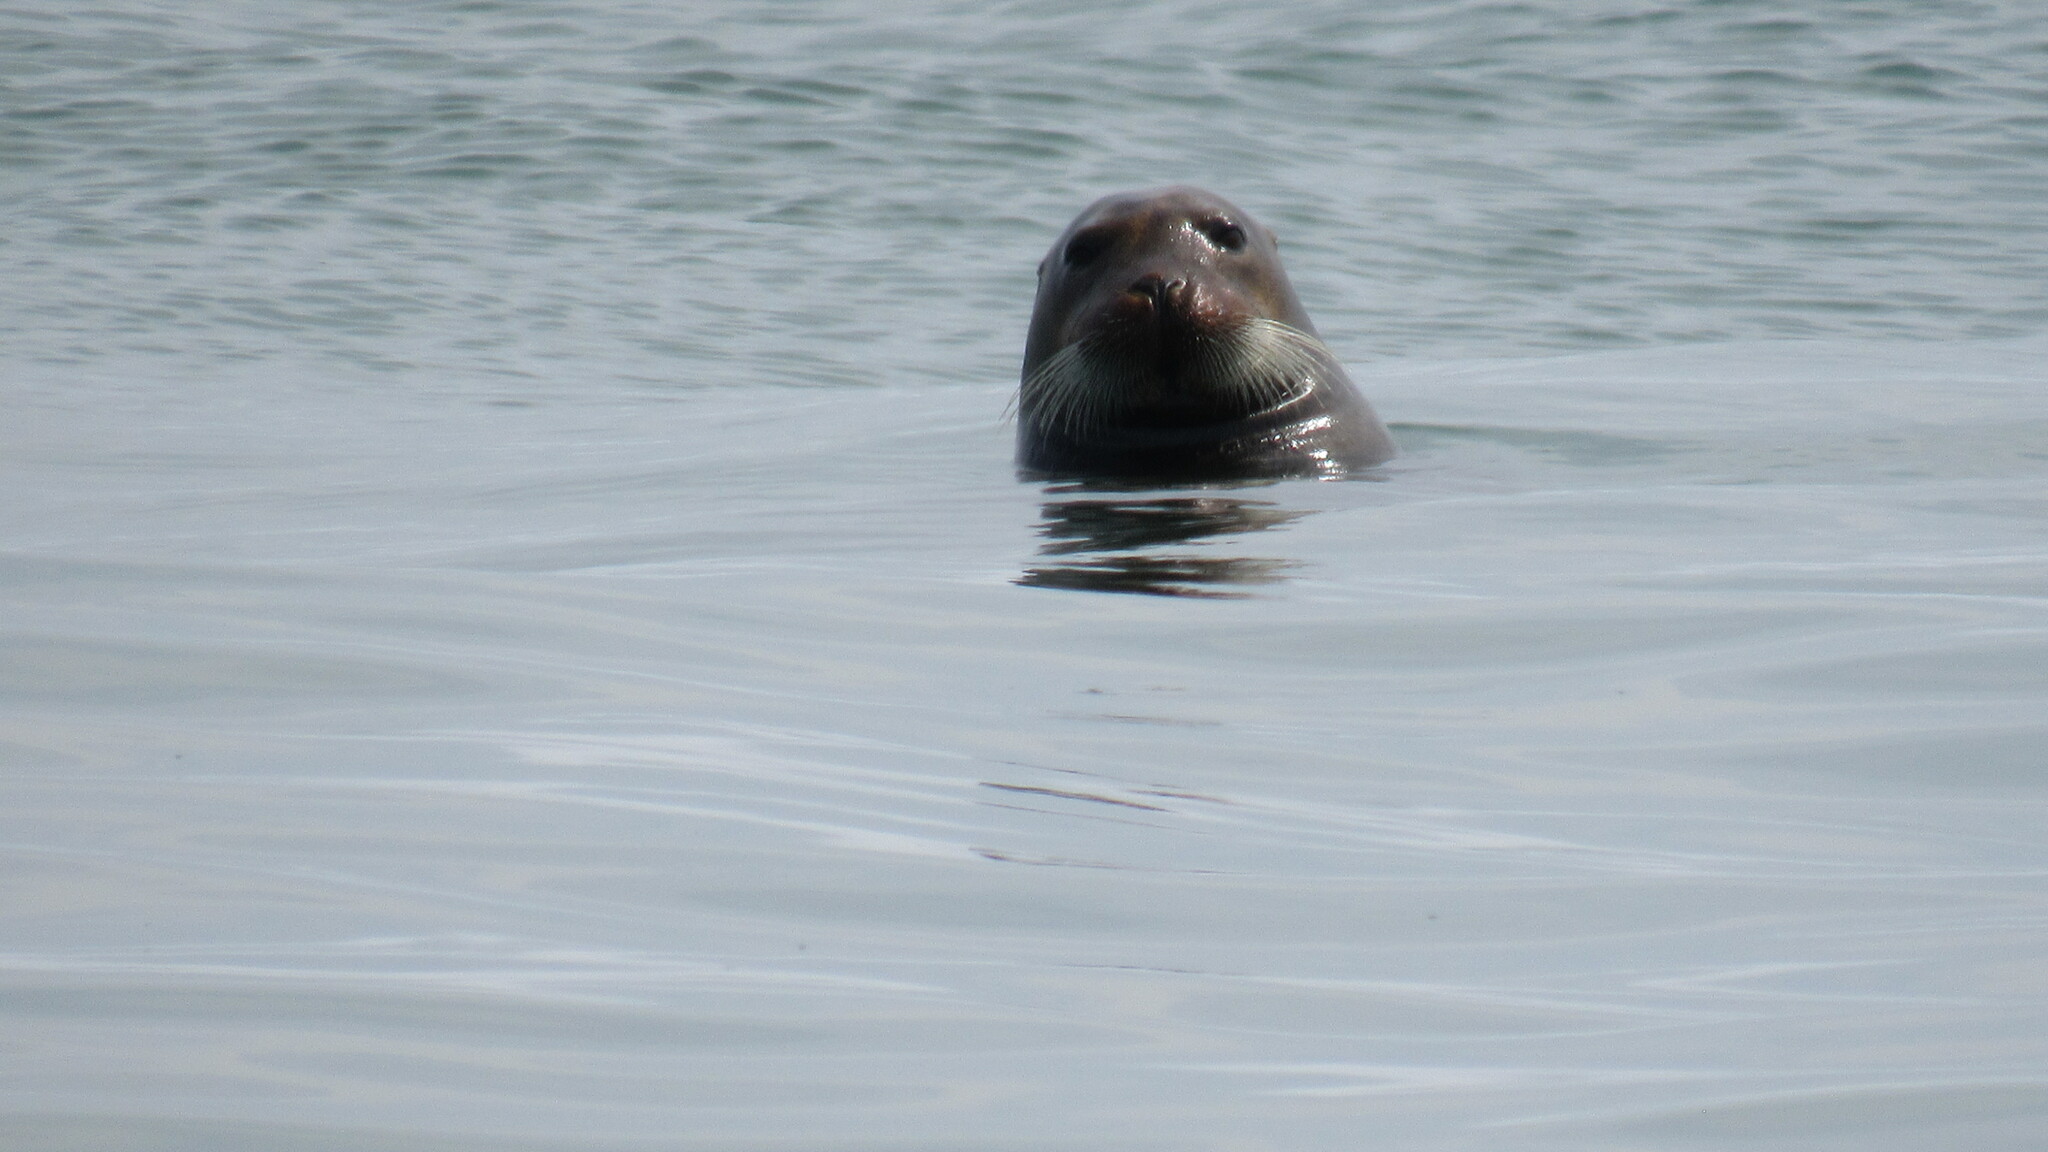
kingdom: Animalia
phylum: Chordata
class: Mammalia
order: Carnivora
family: Phocidae
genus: Erignathus
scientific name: Erignathus barbatus
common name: Bearded seal
